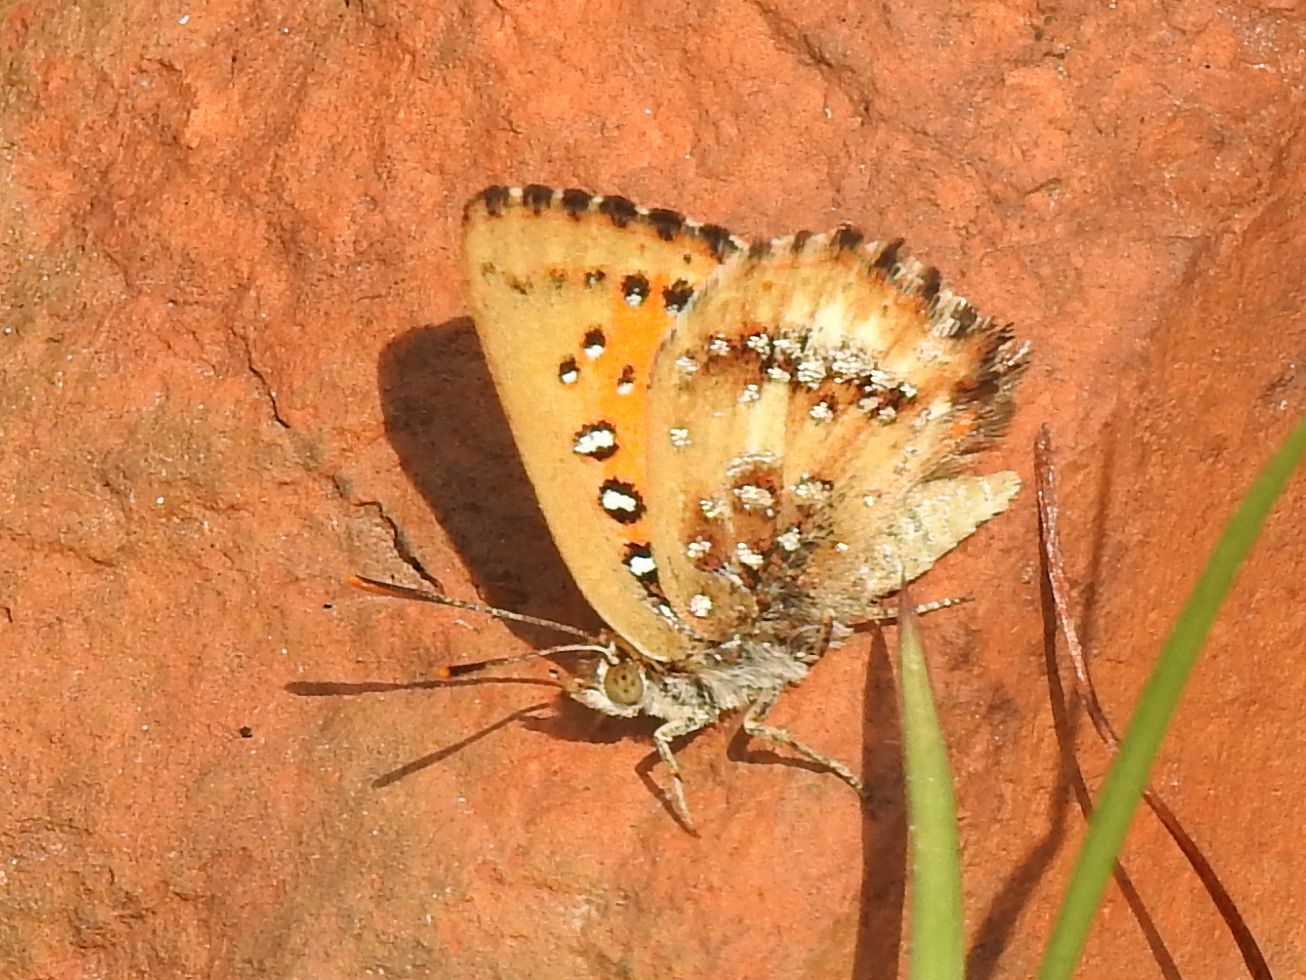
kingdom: Animalia
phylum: Arthropoda
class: Insecta
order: Lepidoptera
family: Lycaenidae
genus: Aloeides
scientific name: Aloeides molomo
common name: Mottled russet
